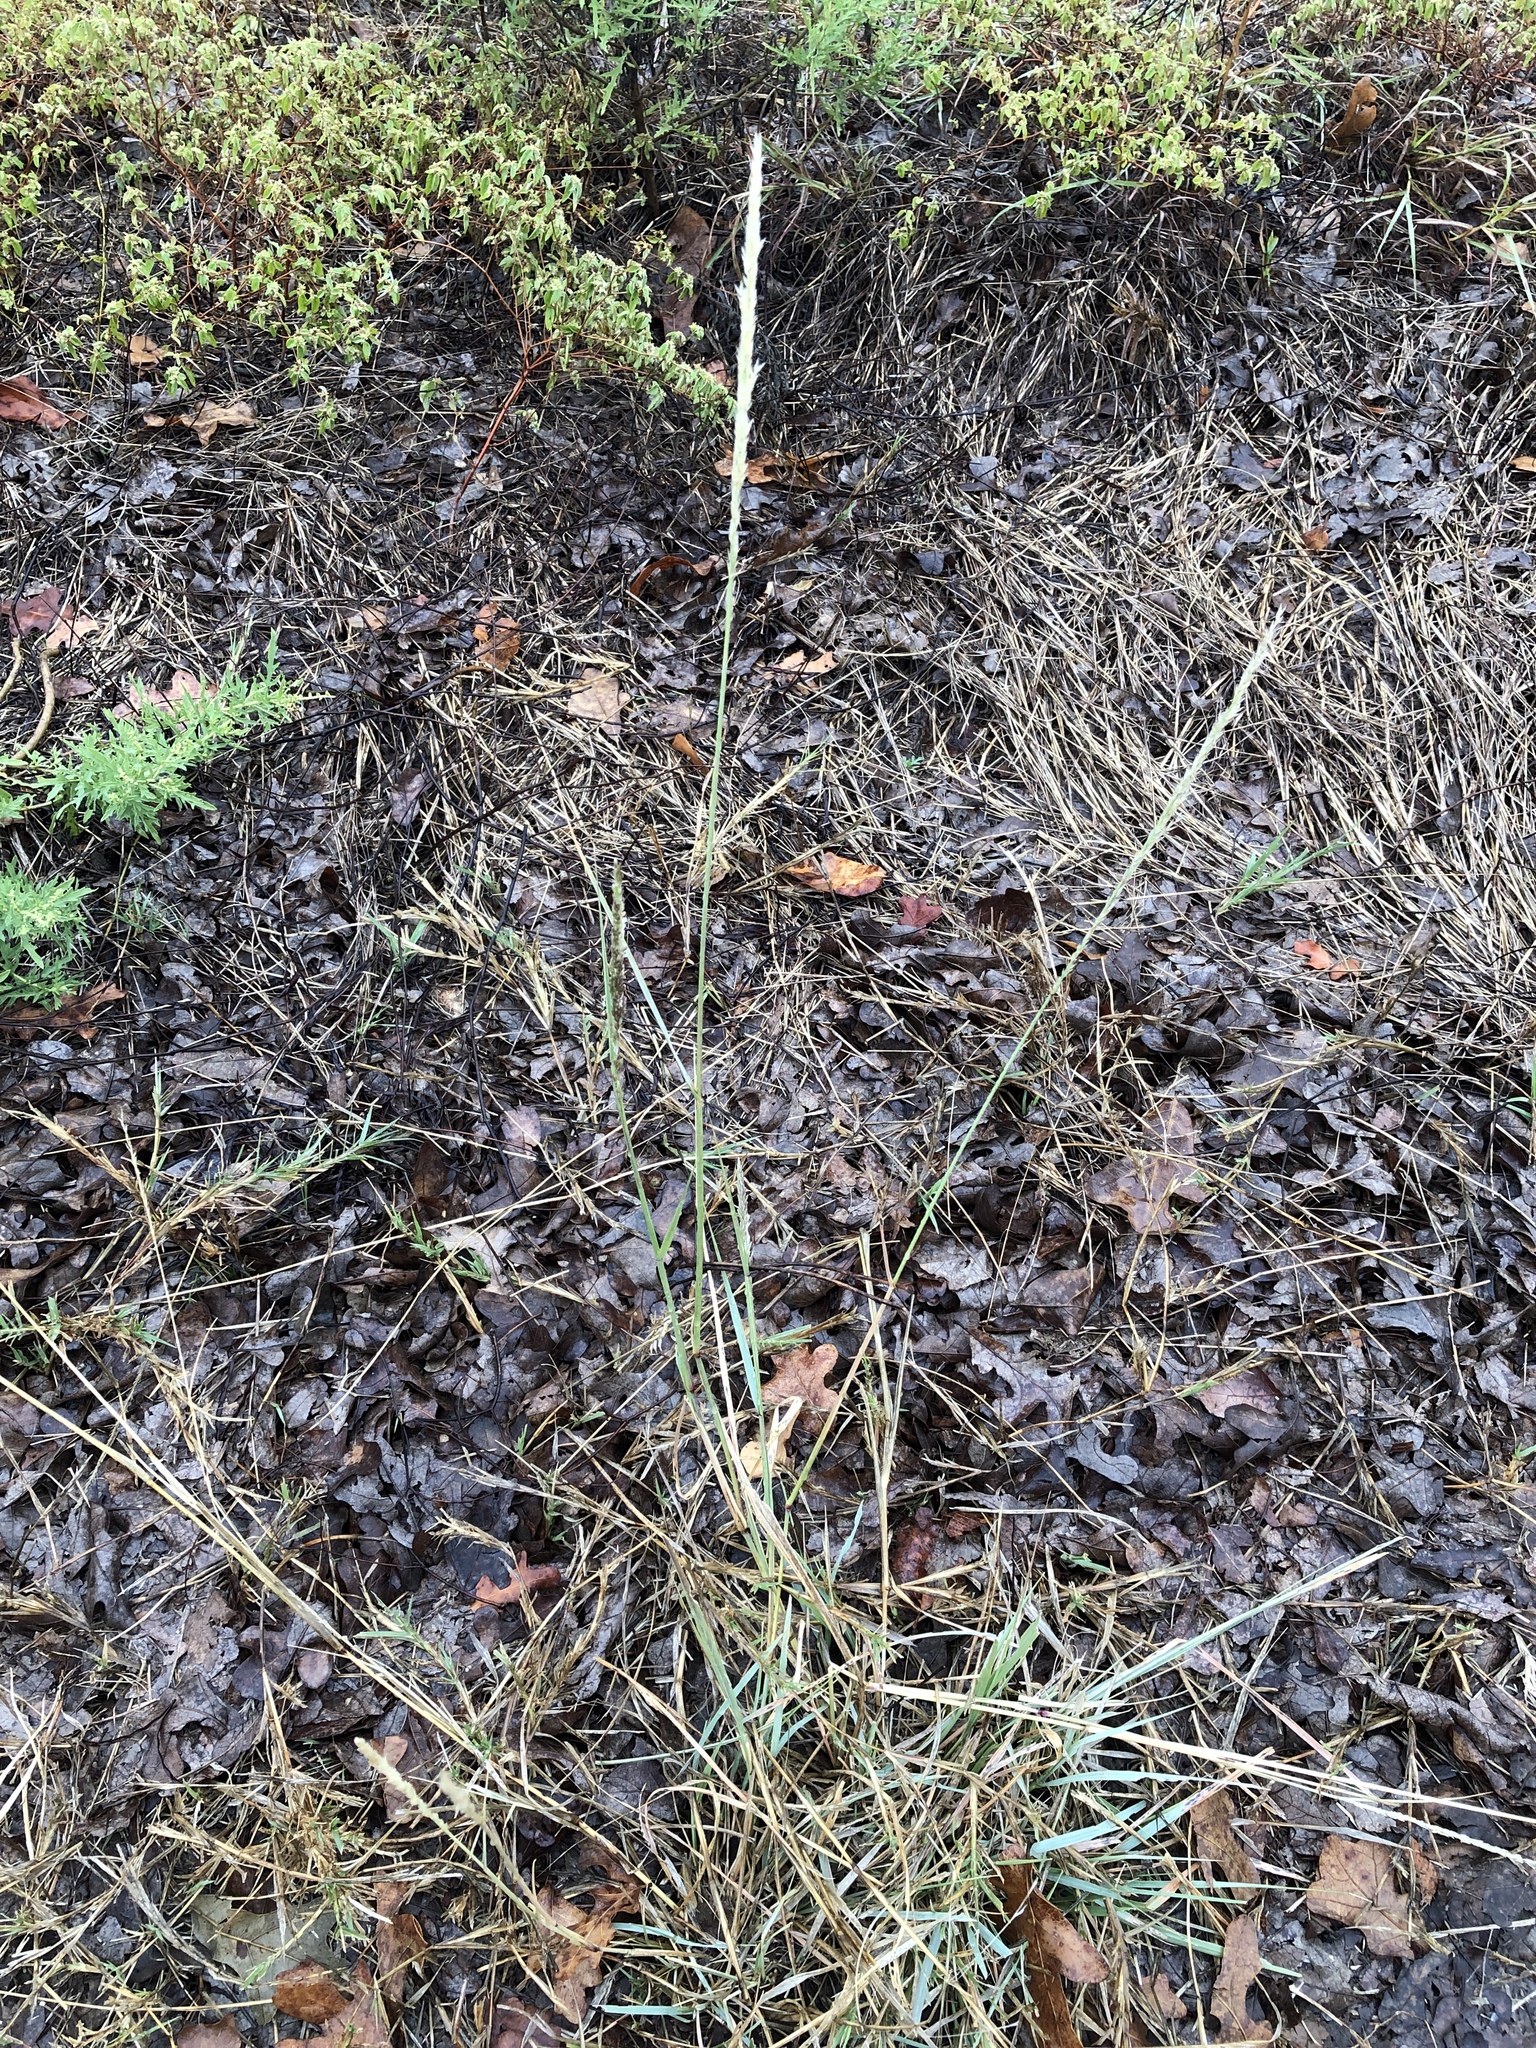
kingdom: Plantae
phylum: Tracheophyta
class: Liliopsida
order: Poales
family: Poaceae
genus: Tridens
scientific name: Tridens albescens
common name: White tridens
